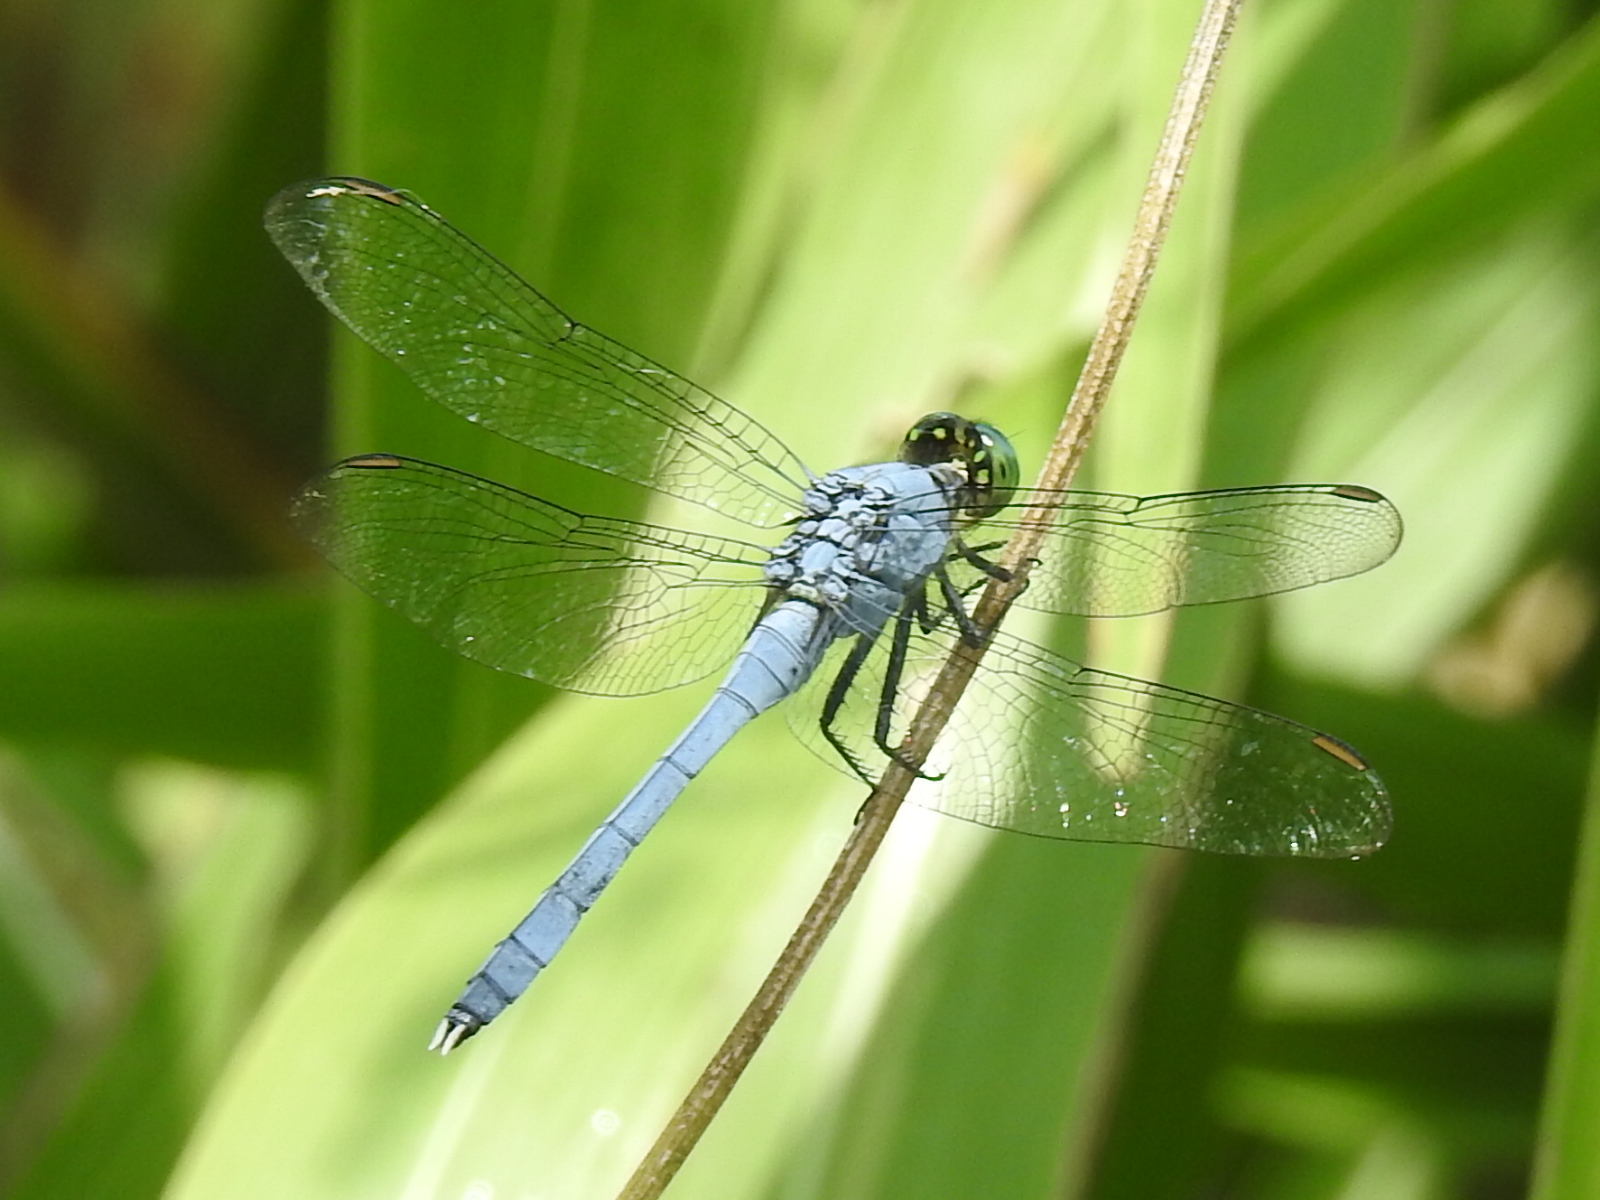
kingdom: Animalia
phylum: Arthropoda
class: Insecta
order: Odonata
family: Libellulidae
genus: Erythemis
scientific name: Erythemis simplicicollis
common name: Eastern pondhawk
